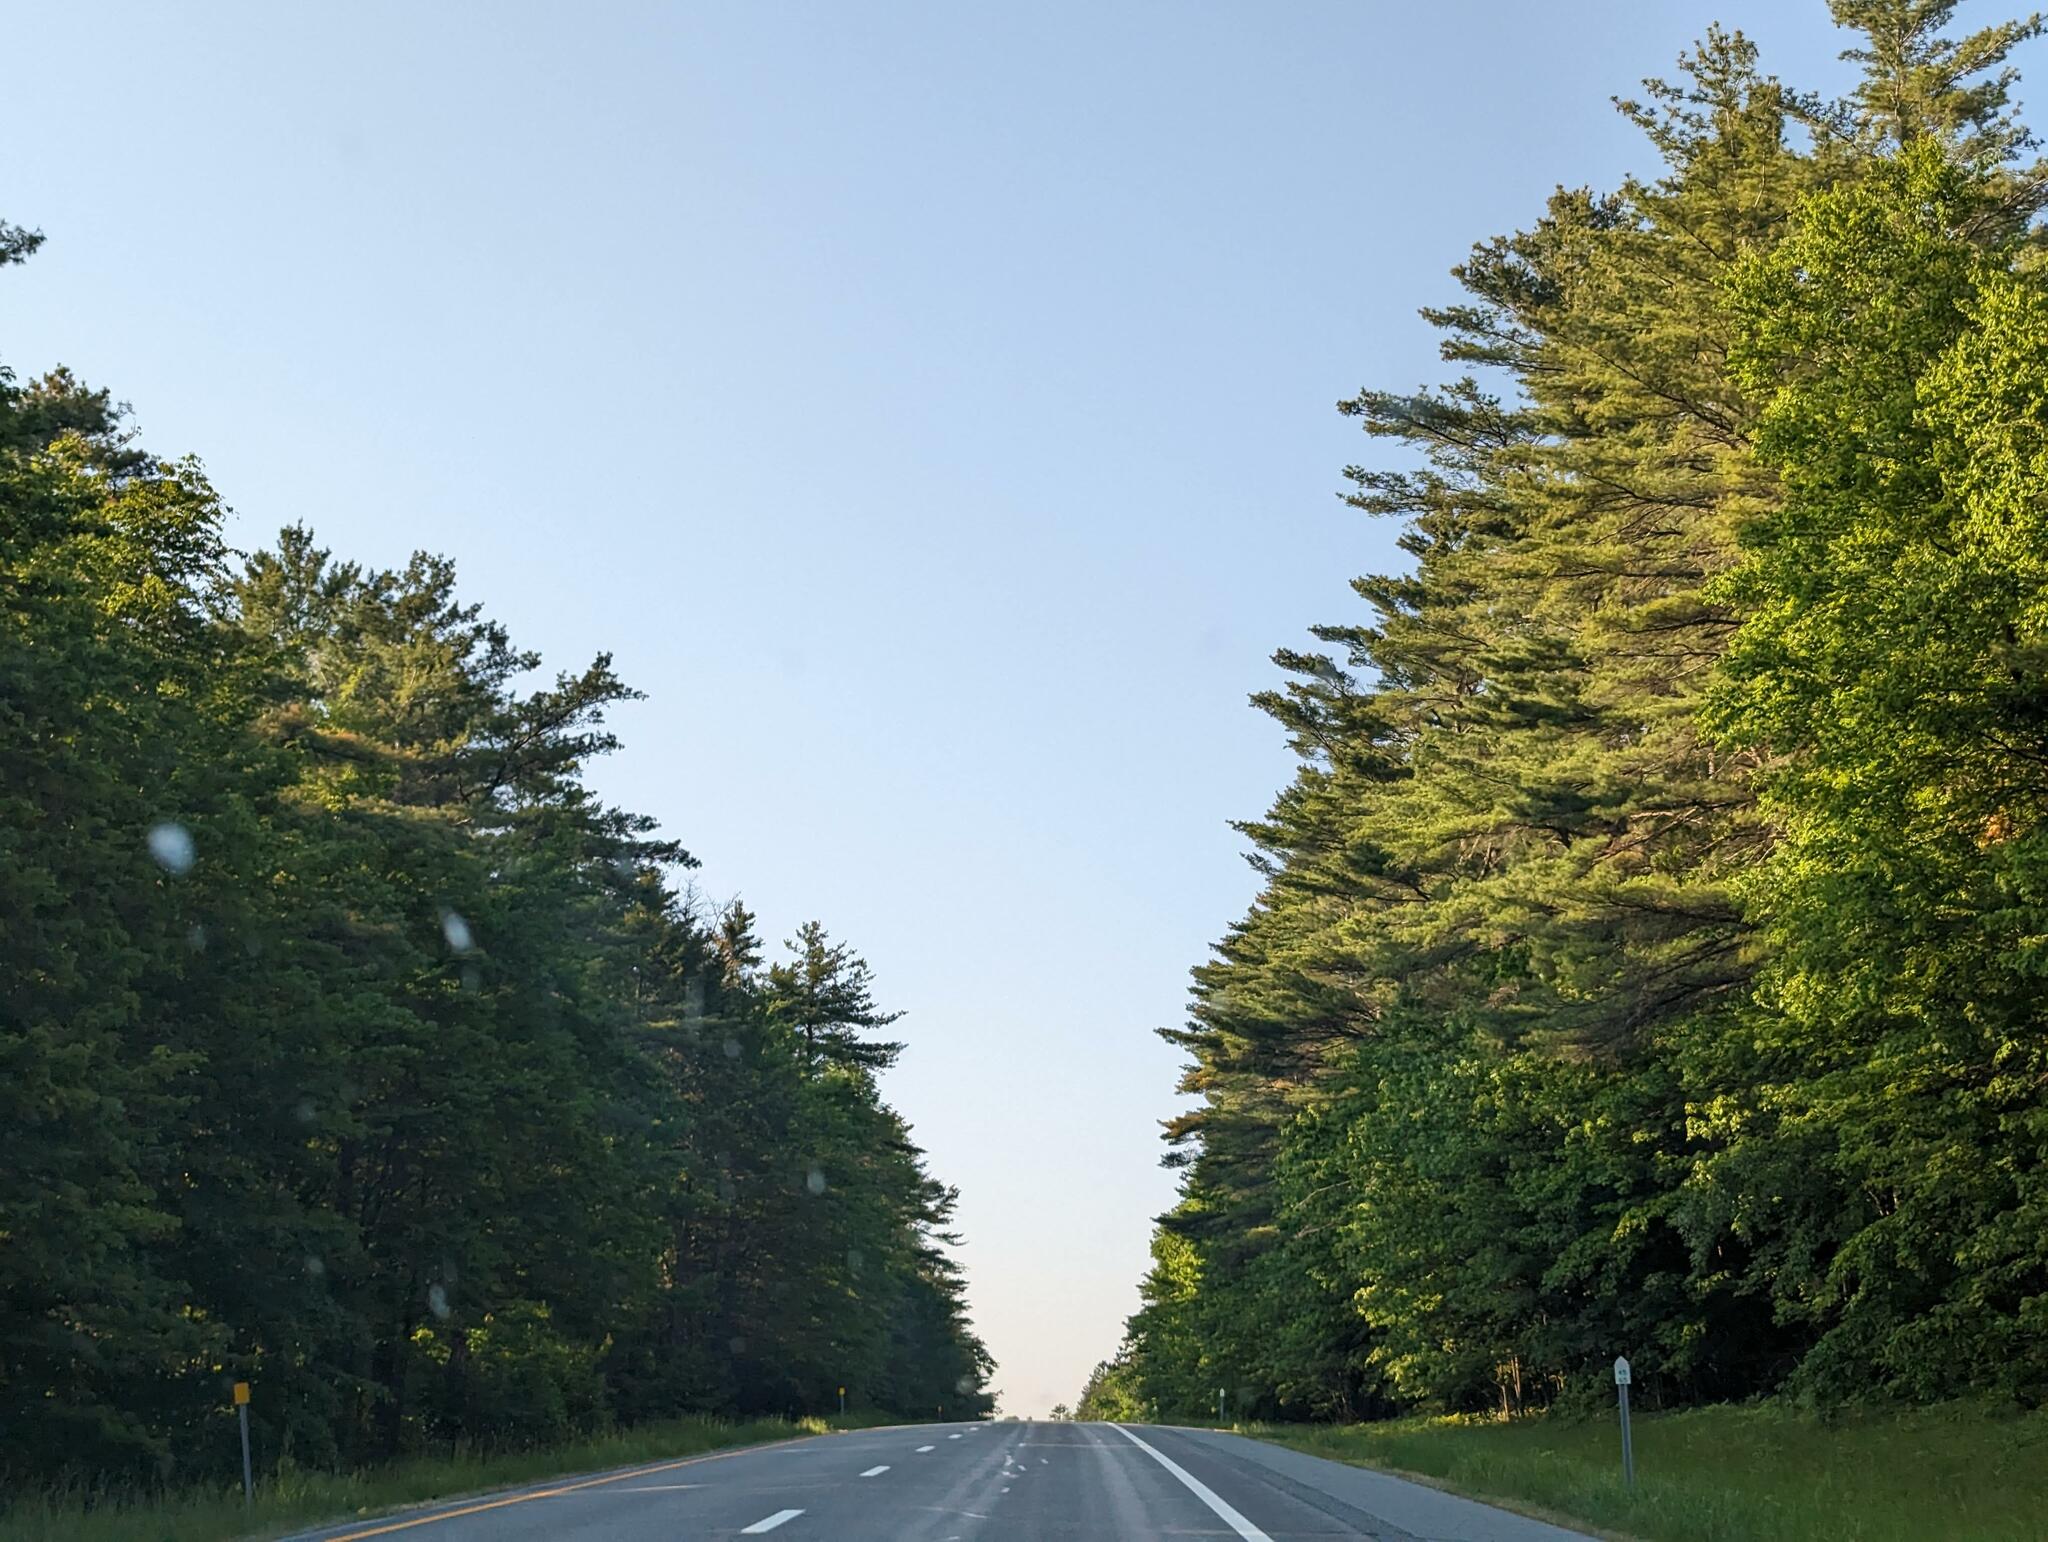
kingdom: Plantae
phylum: Tracheophyta
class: Pinopsida
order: Pinales
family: Pinaceae
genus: Pinus
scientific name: Pinus strobus
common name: Weymouth pine
